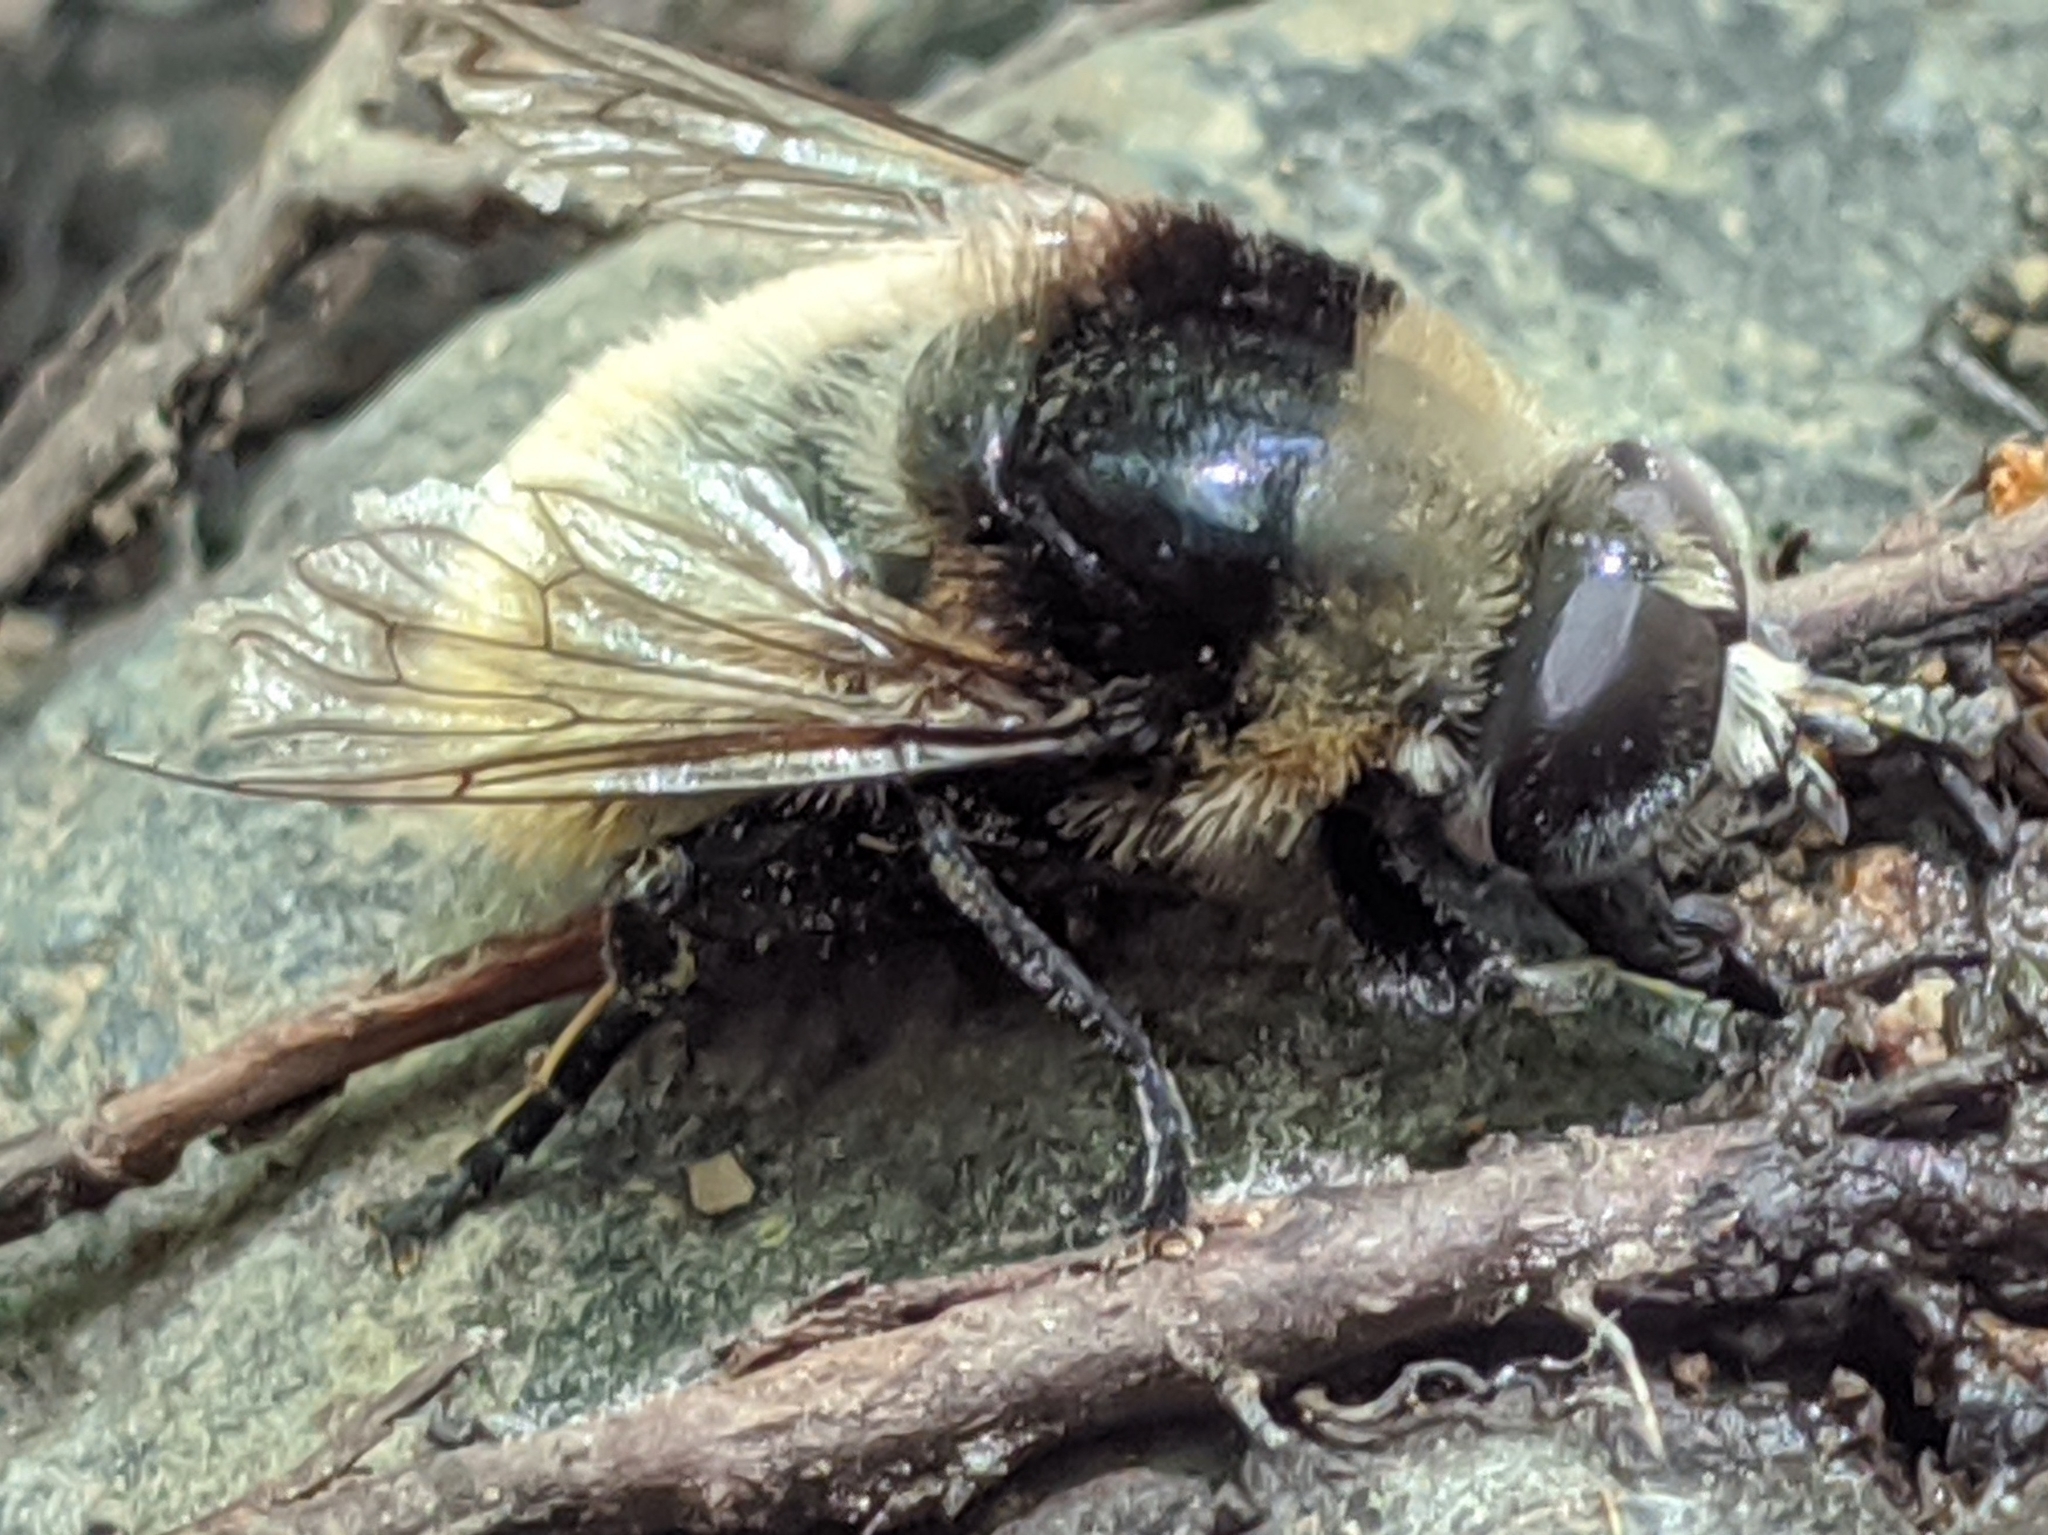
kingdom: Animalia
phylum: Arthropoda
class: Insecta
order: Diptera
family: Syrphidae
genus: Merodon
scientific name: Merodon equestris
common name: Greater bulb-fly
